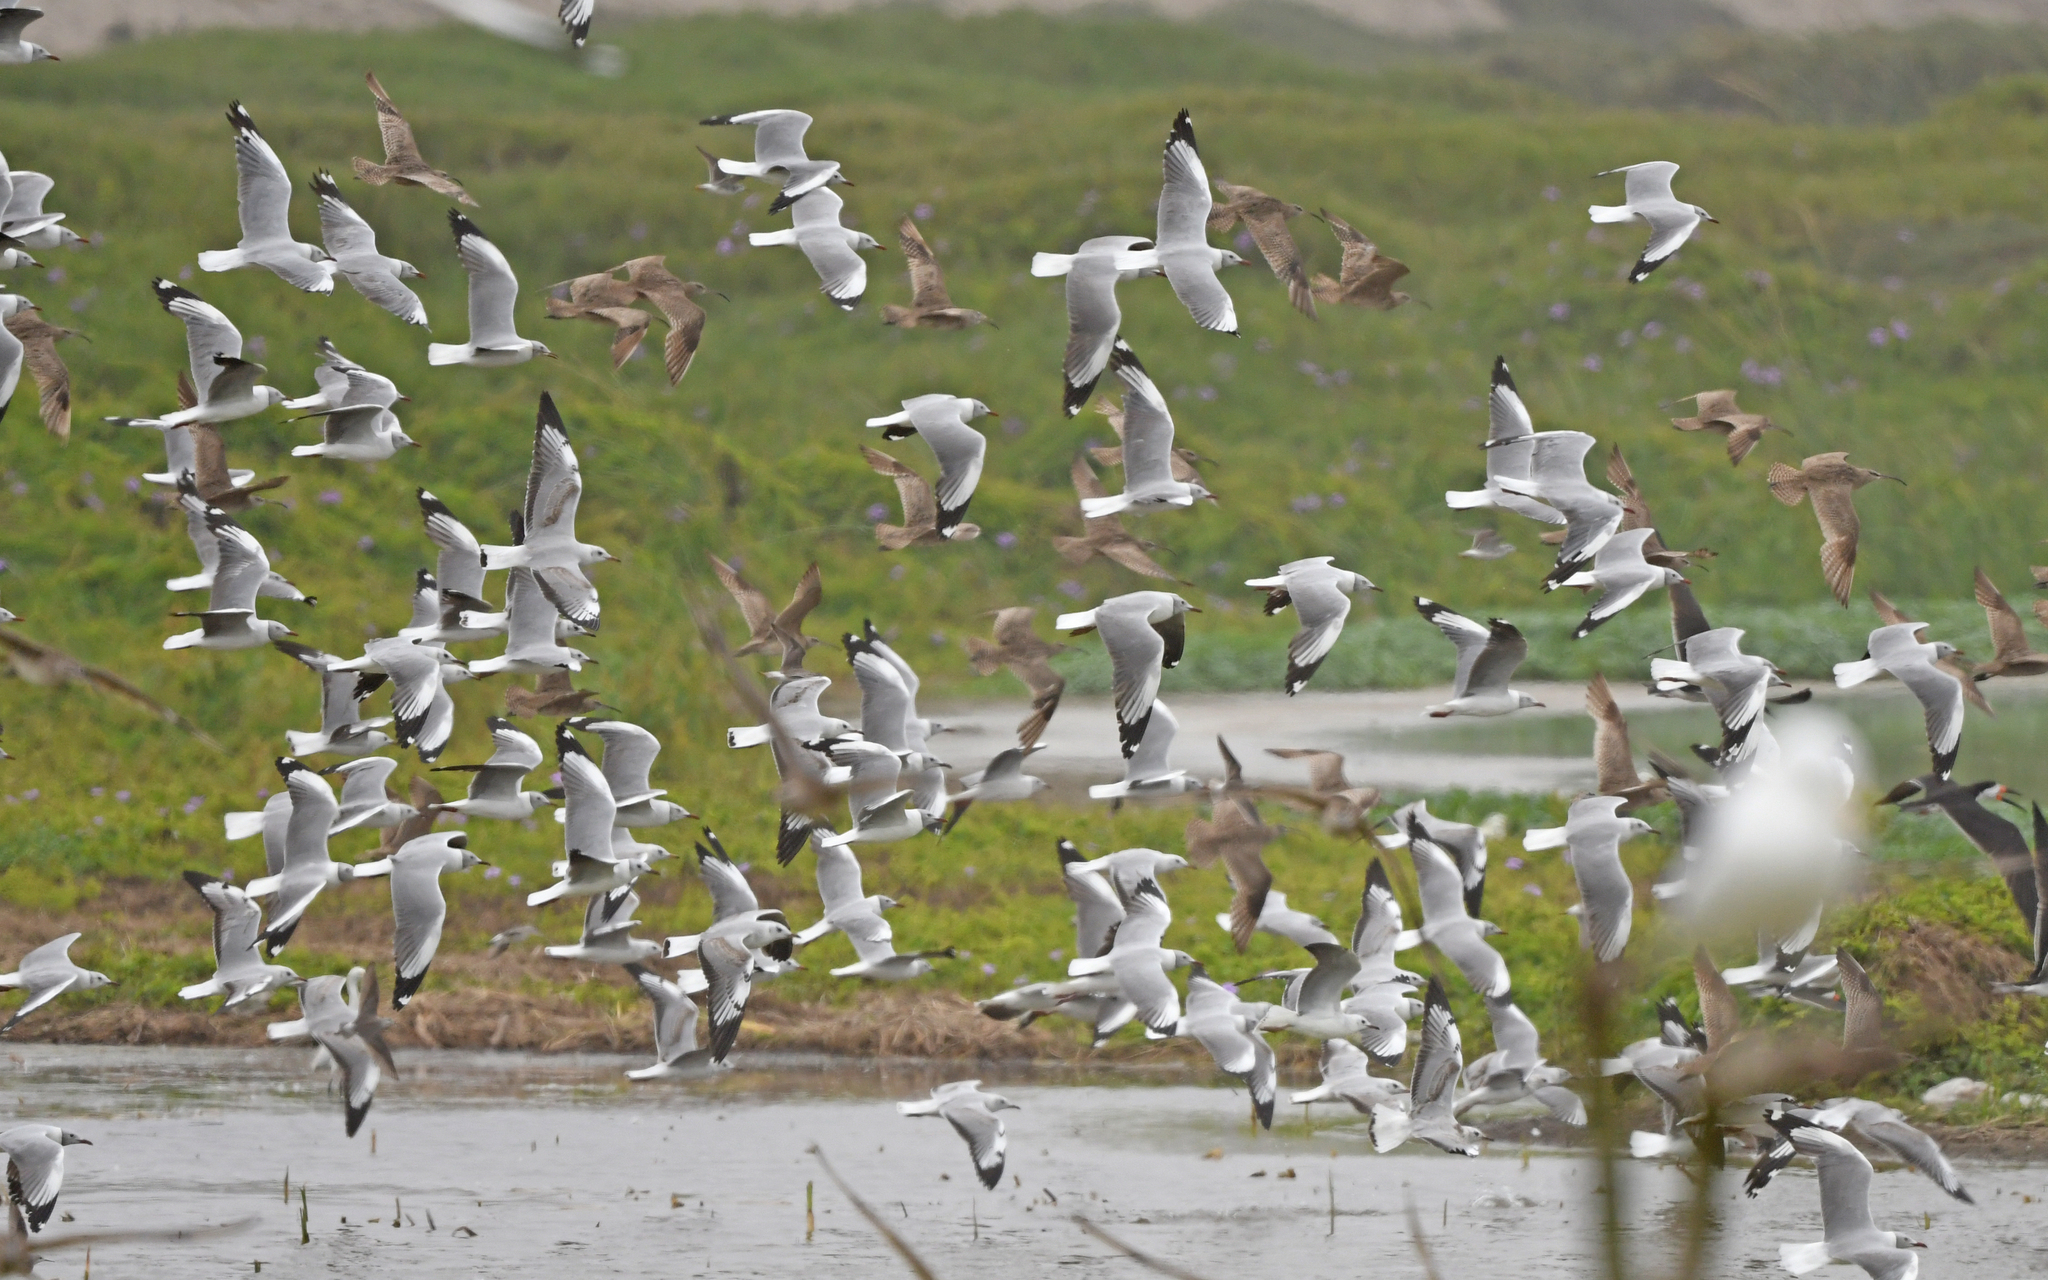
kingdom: Animalia
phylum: Chordata
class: Aves
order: Charadriiformes
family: Laridae
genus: Chroicocephalus
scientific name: Chroicocephalus cirrocephalus
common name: Grey-headed gull
